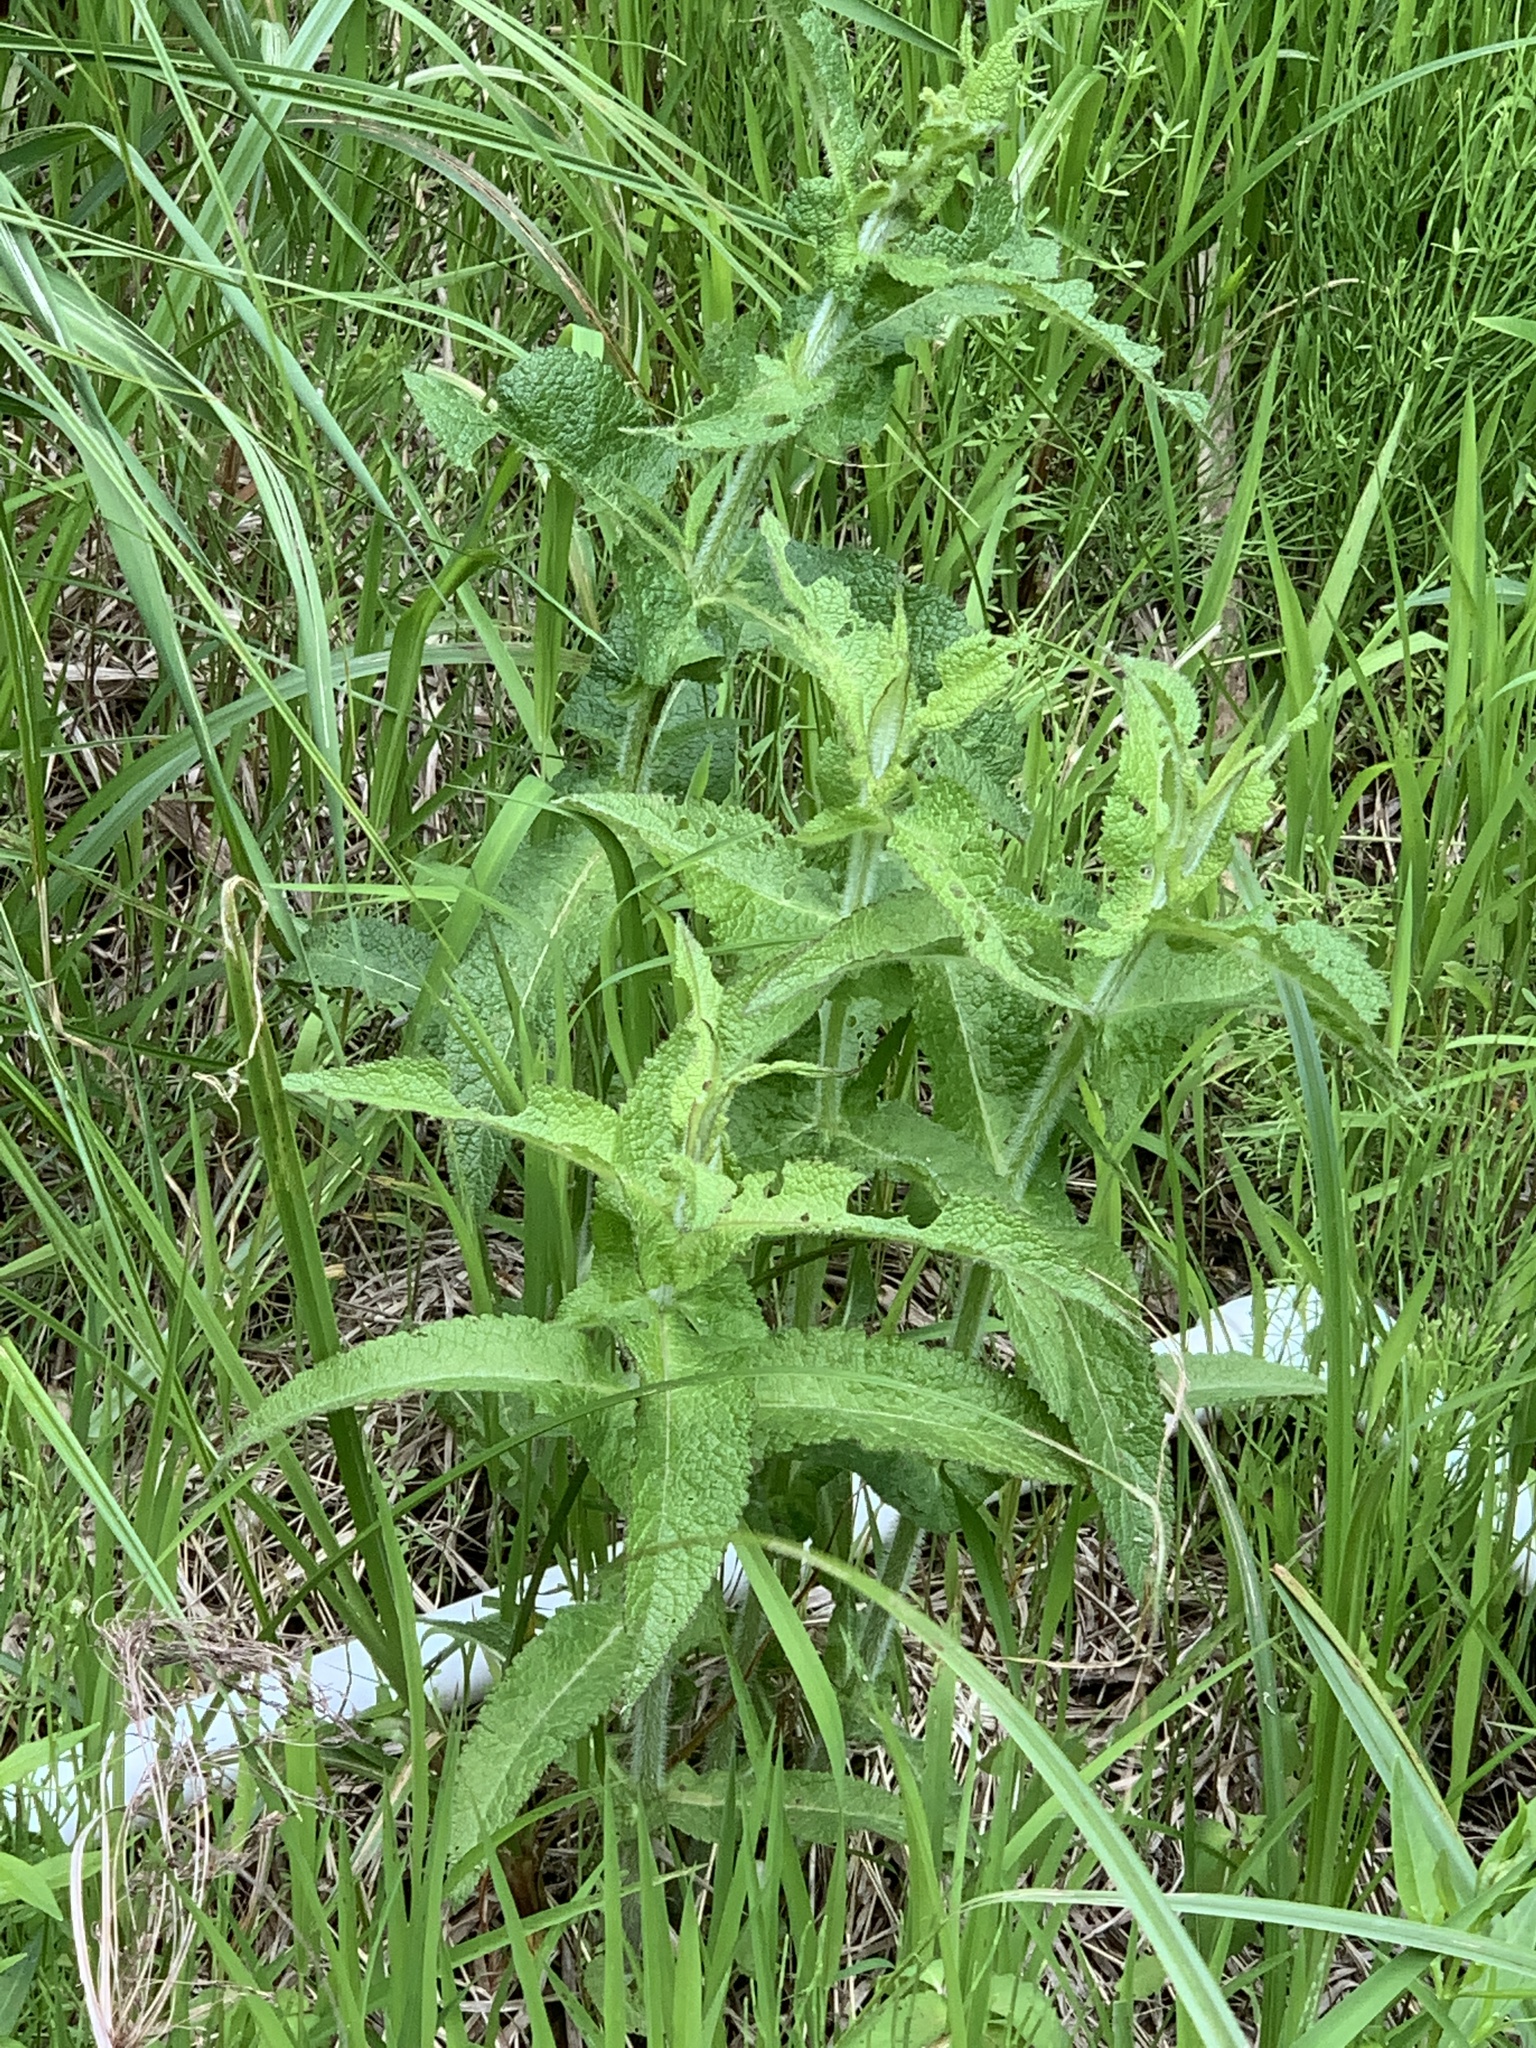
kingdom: Plantae
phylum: Tracheophyta
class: Magnoliopsida
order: Asterales
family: Asteraceae
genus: Eupatorium
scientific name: Eupatorium perfoliatum
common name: Boneset
